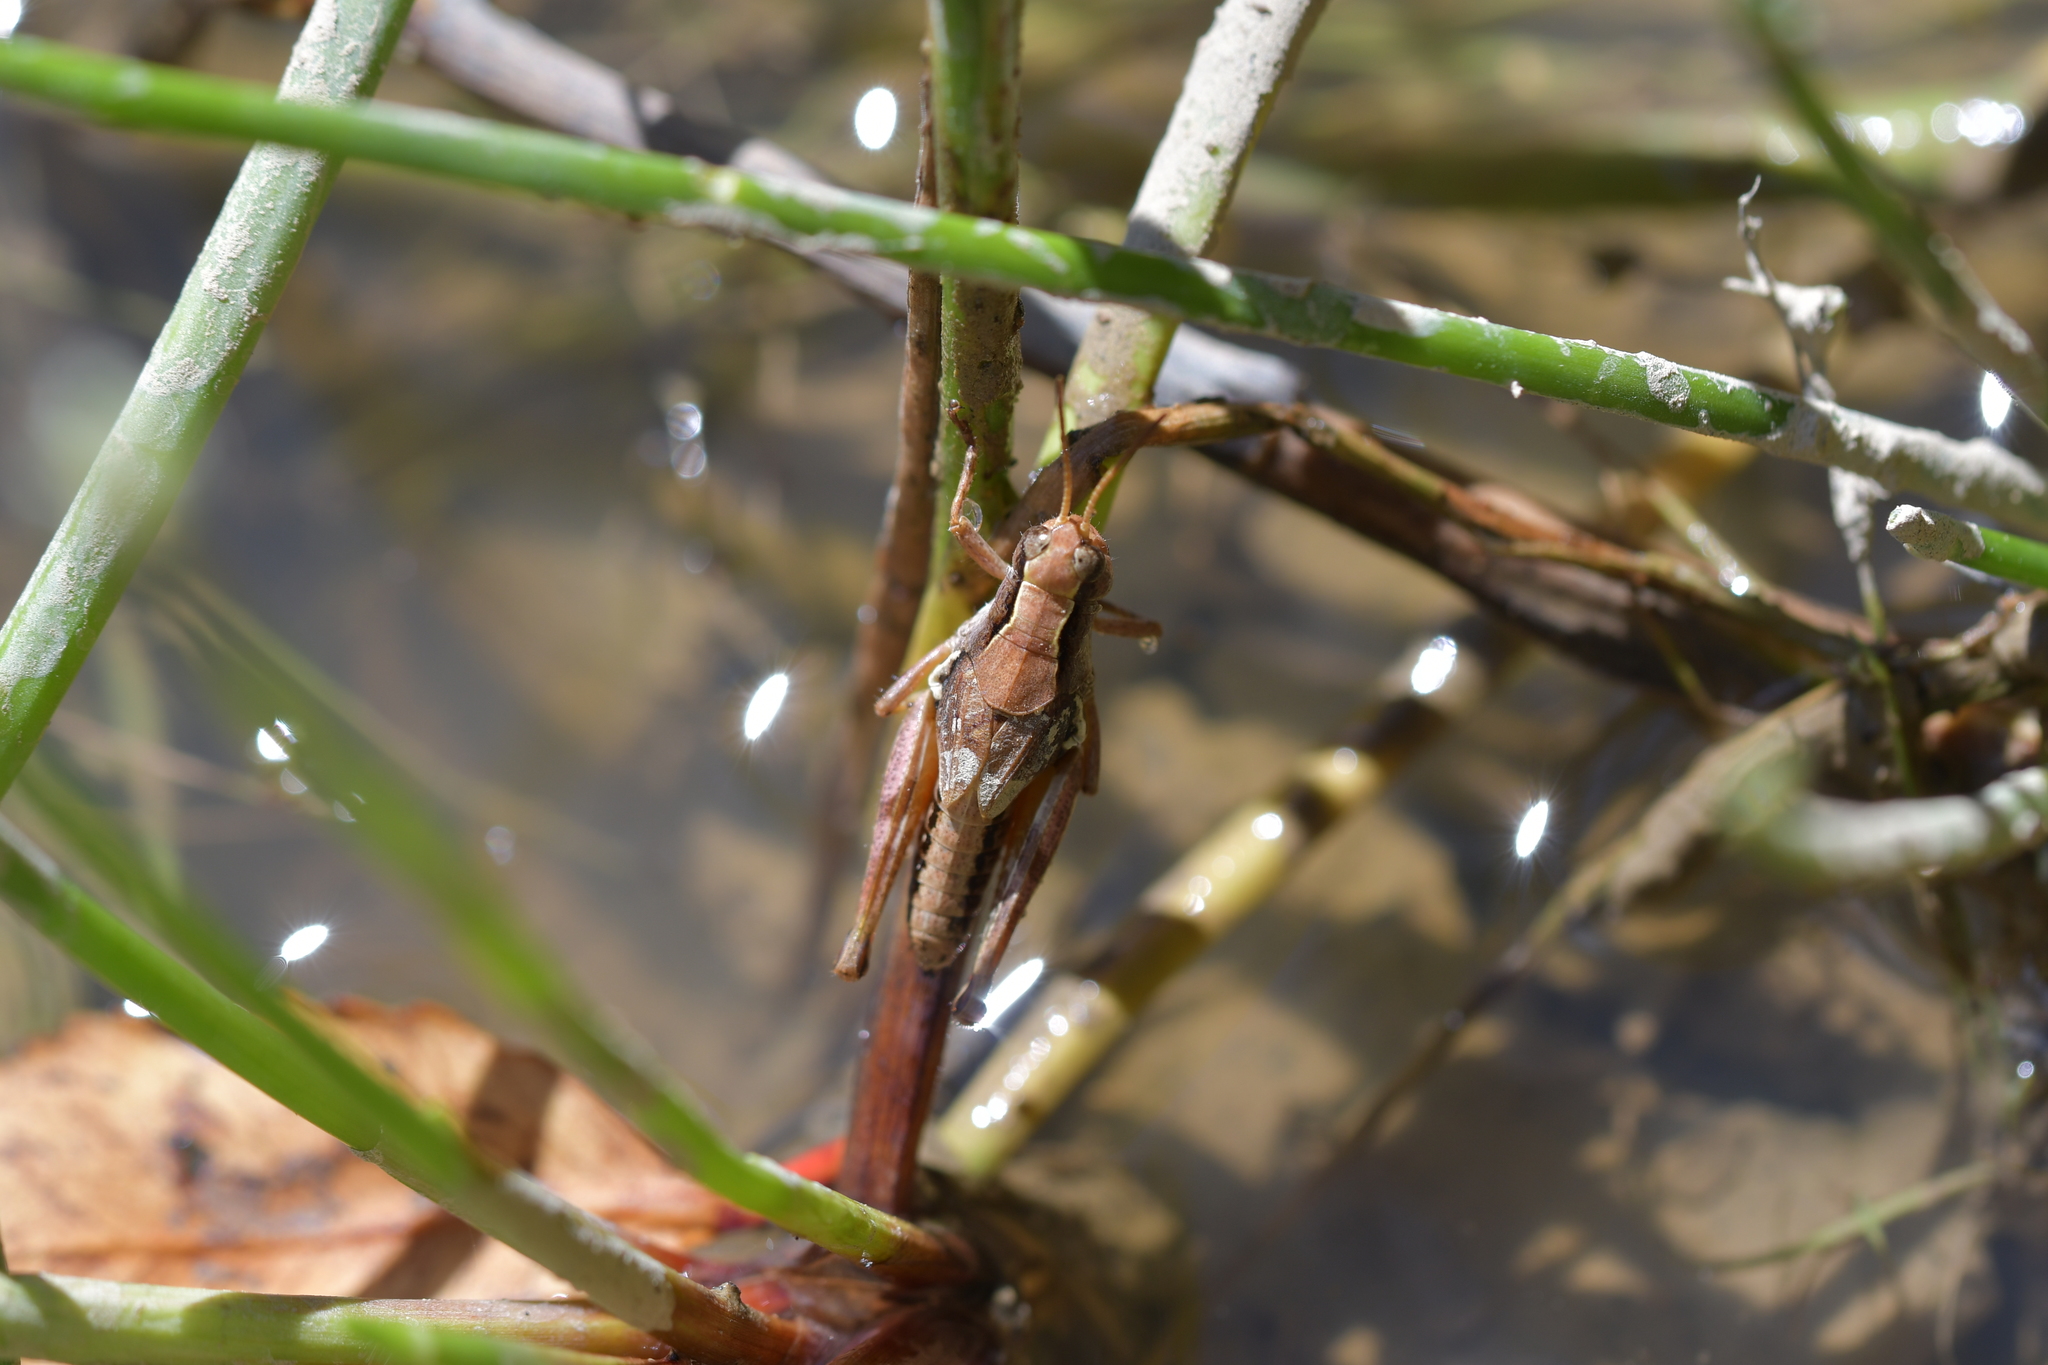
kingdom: Animalia
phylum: Arthropoda
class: Insecta
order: Orthoptera
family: Acrididae
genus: Phaulacridium
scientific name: Phaulacridium marginale
